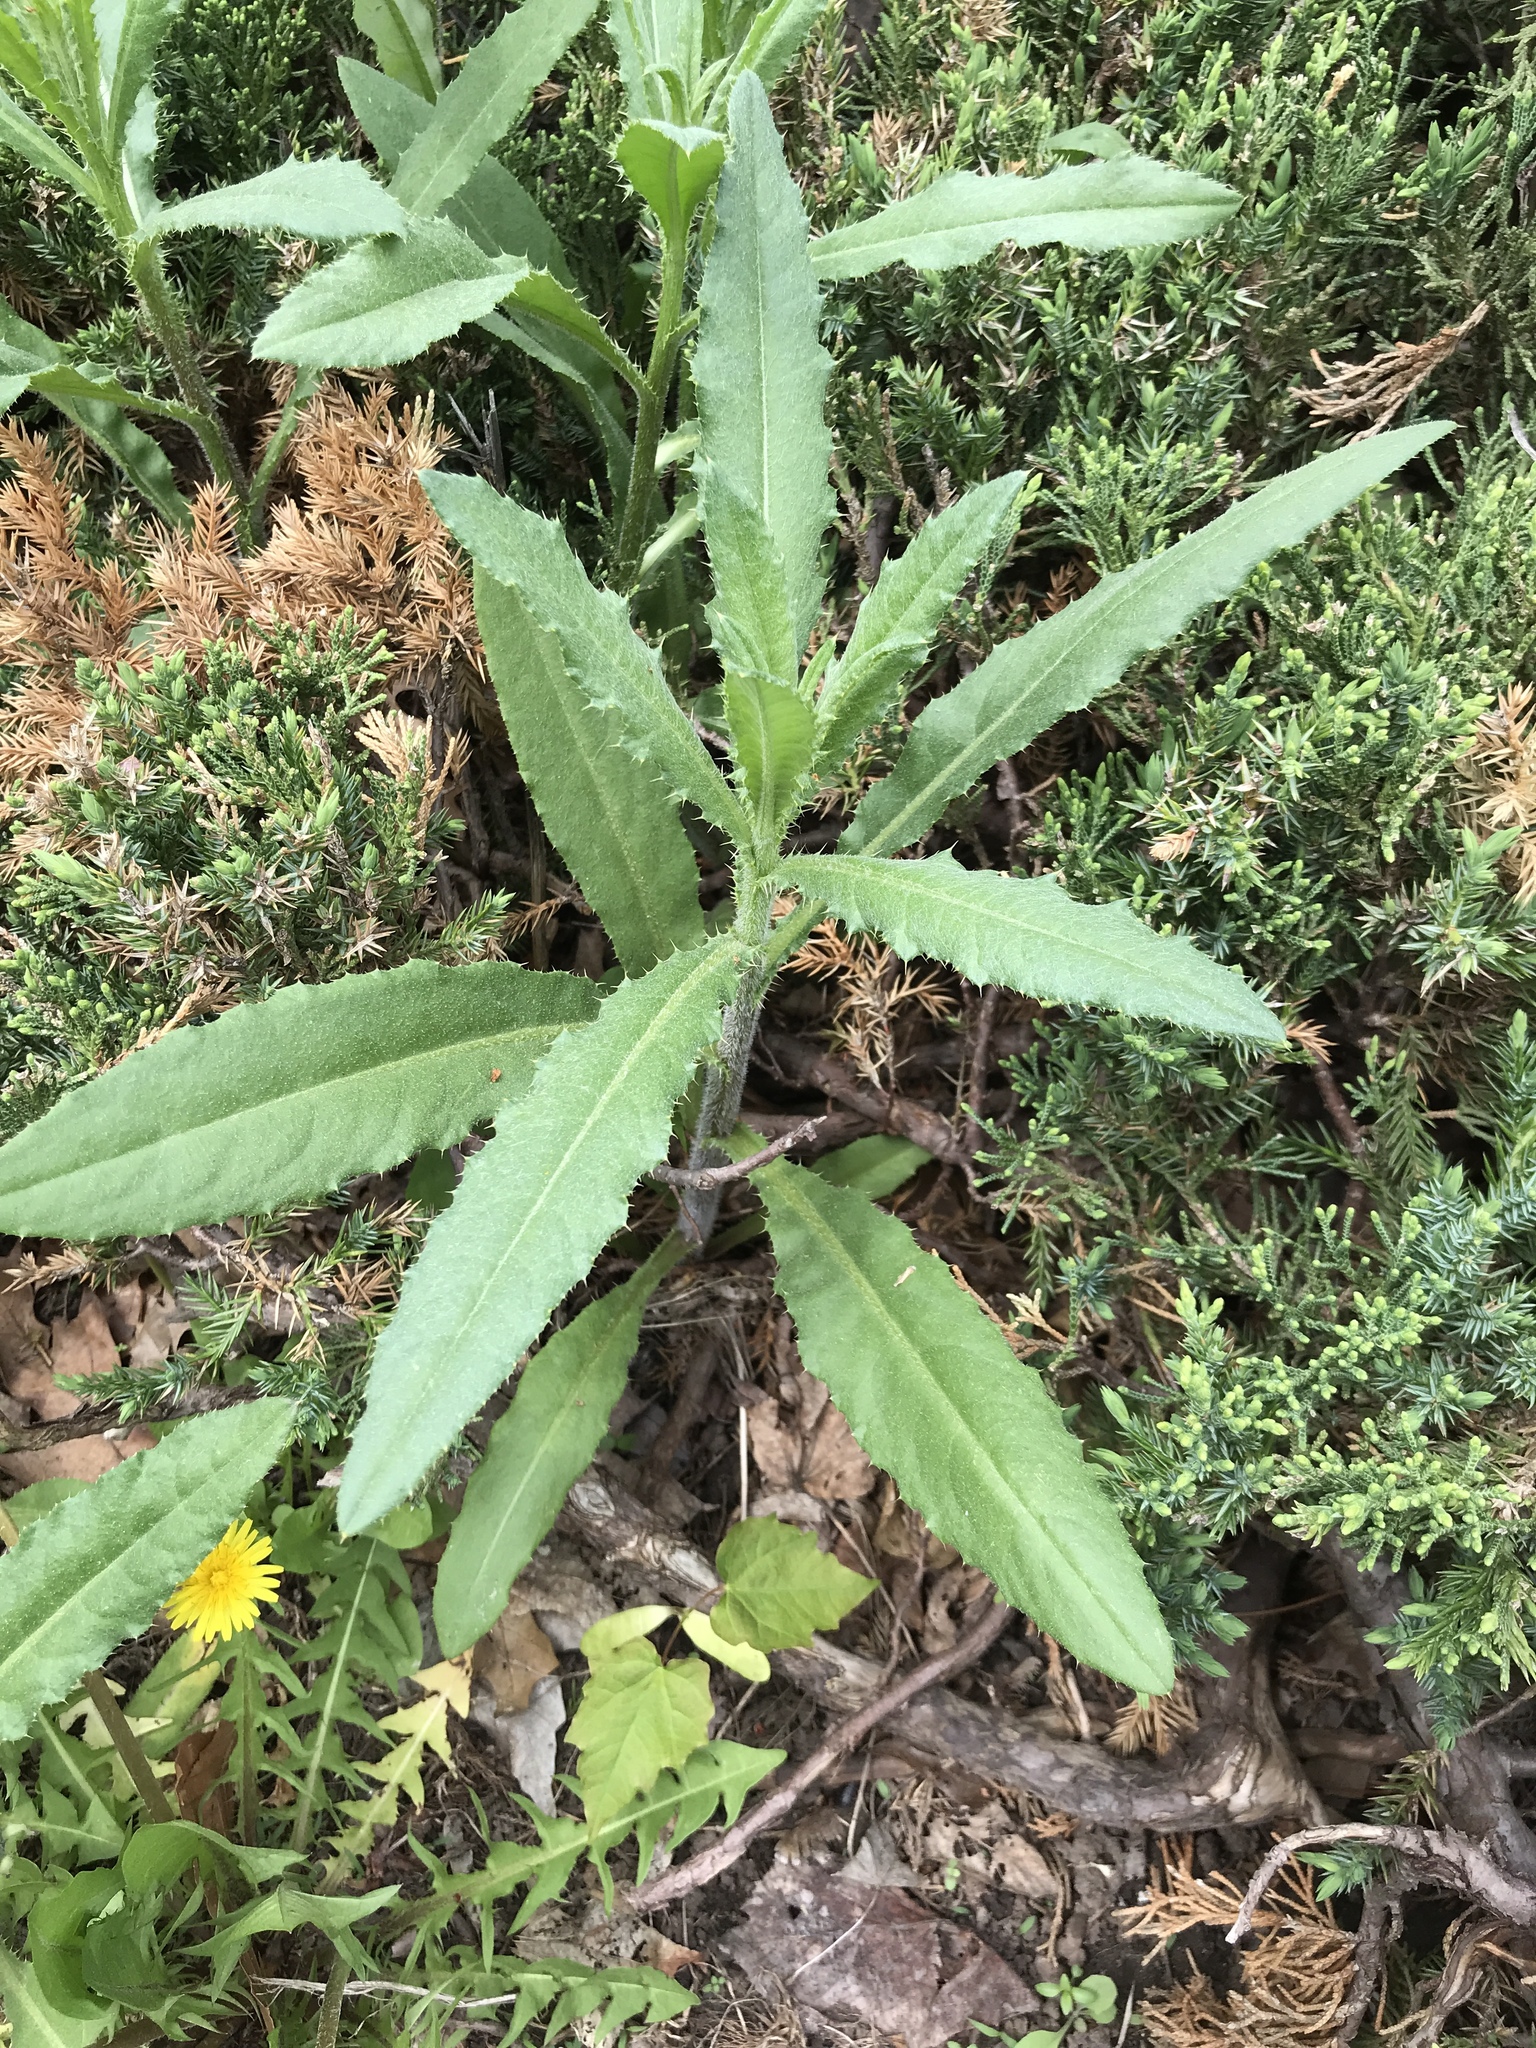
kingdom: Plantae
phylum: Tracheophyta
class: Magnoliopsida
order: Asterales
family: Asteraceae
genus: Cirsium
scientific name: Cirsium arvense
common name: Creeping thistle
